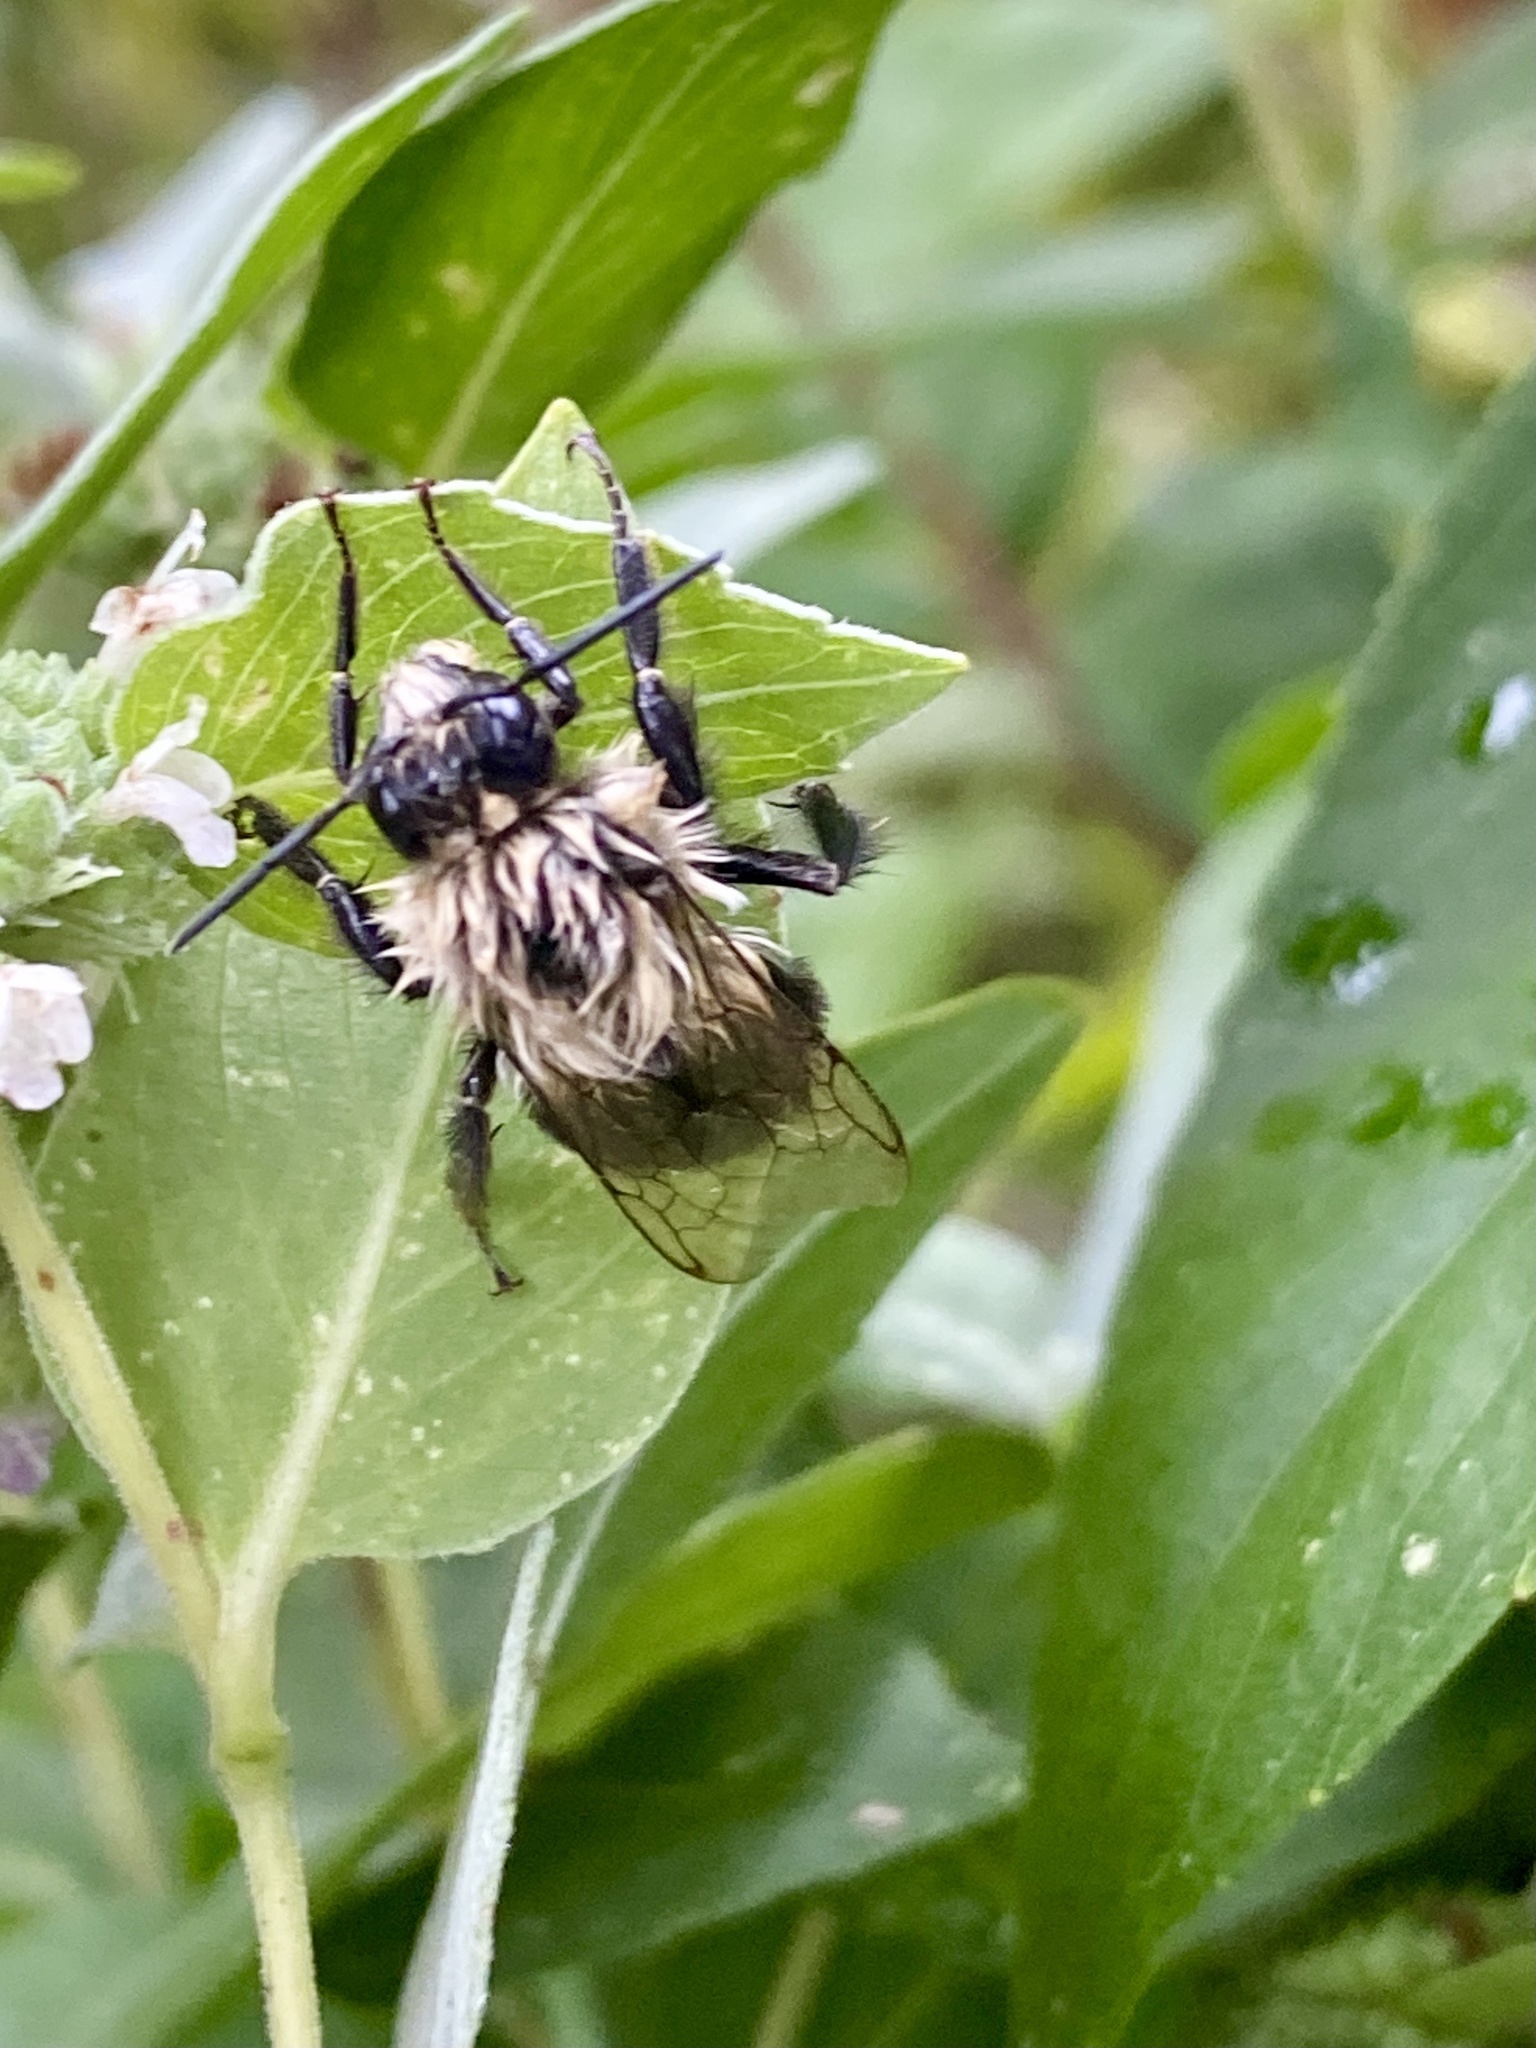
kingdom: Animalia
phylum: Arthropoda
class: Insecta
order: Hymenoptera
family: Apidae
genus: Bombus
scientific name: Bombus impatiens
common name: Common eastern bumble bee
